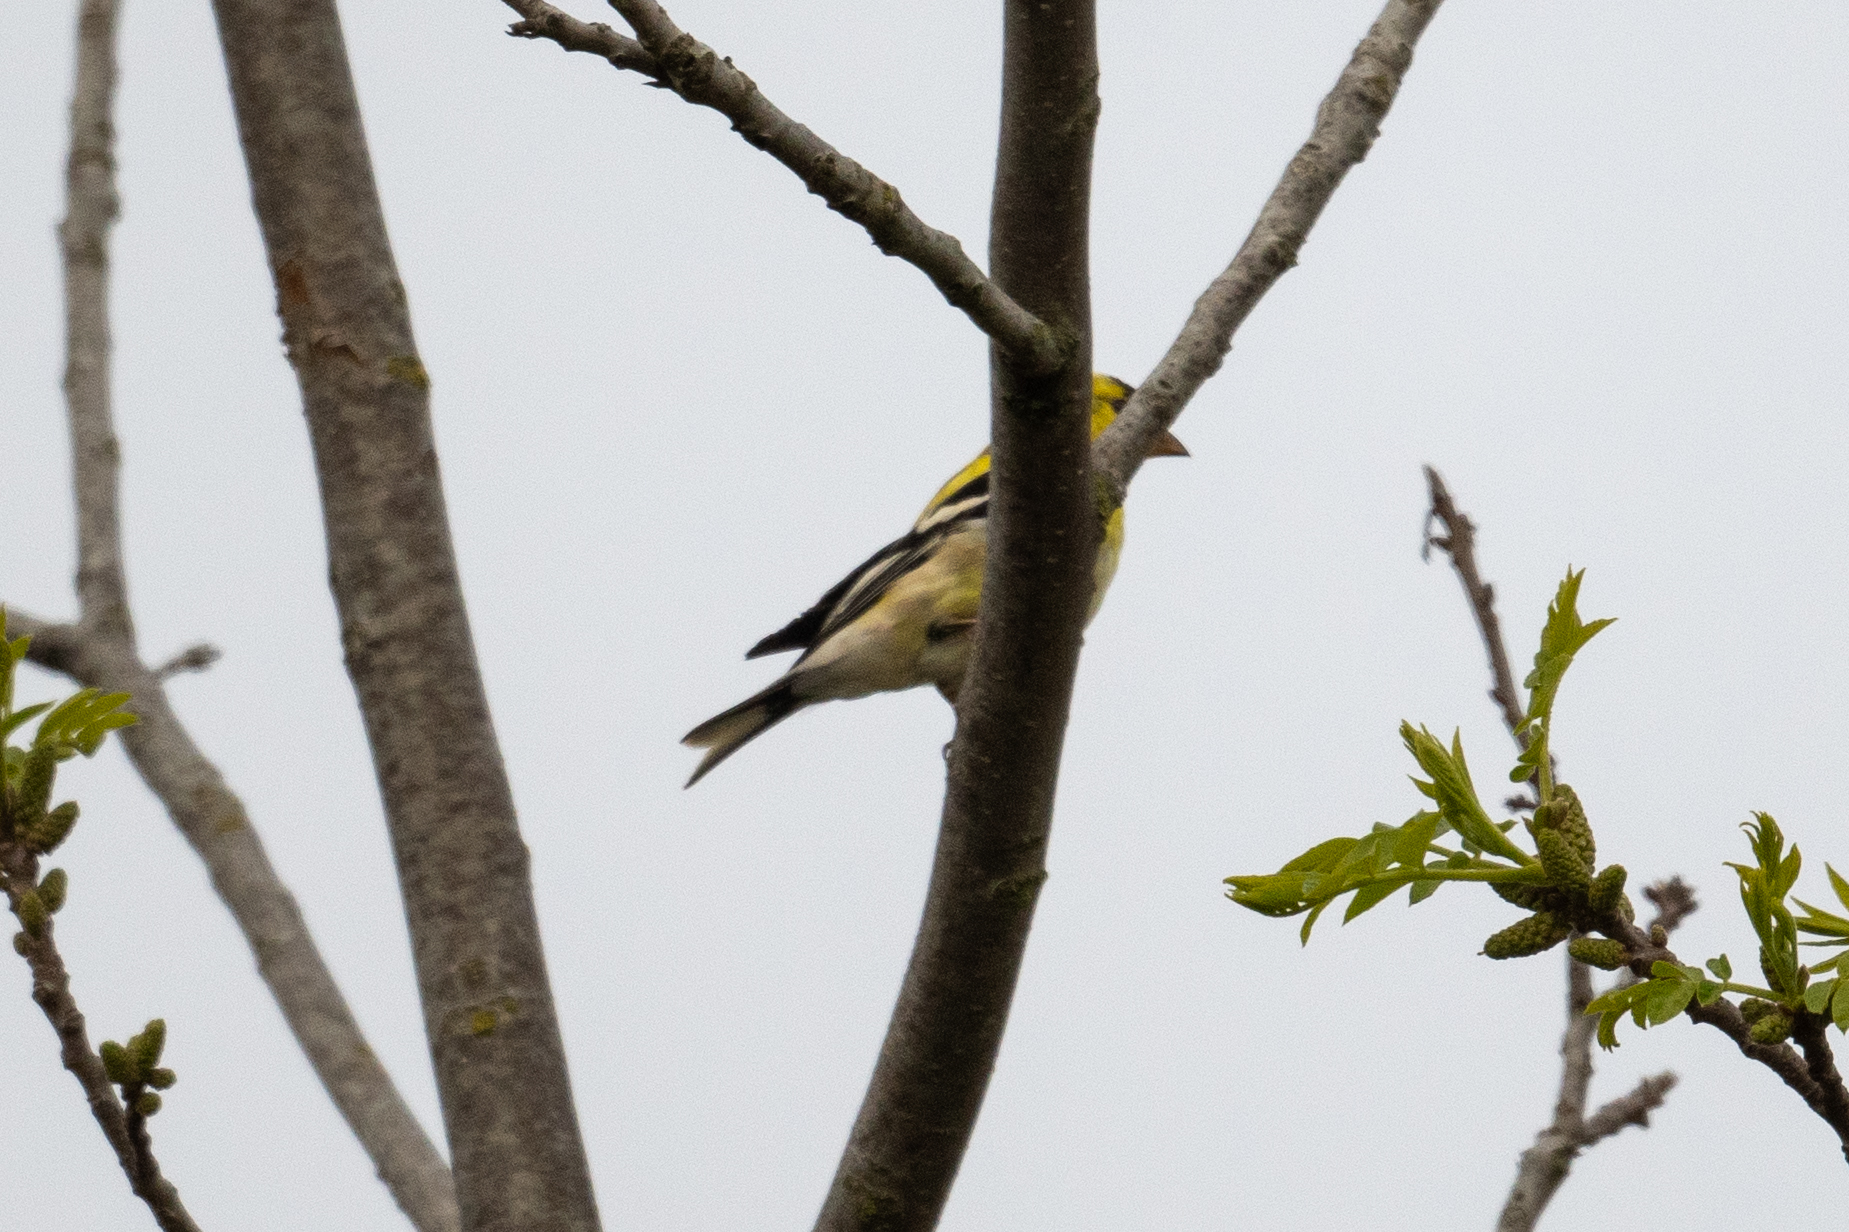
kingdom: Animalia
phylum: Chordata
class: Aves
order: Passeriformes
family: Fringillidae
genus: Spinus
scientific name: Spinus tristis
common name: American goldfinch
